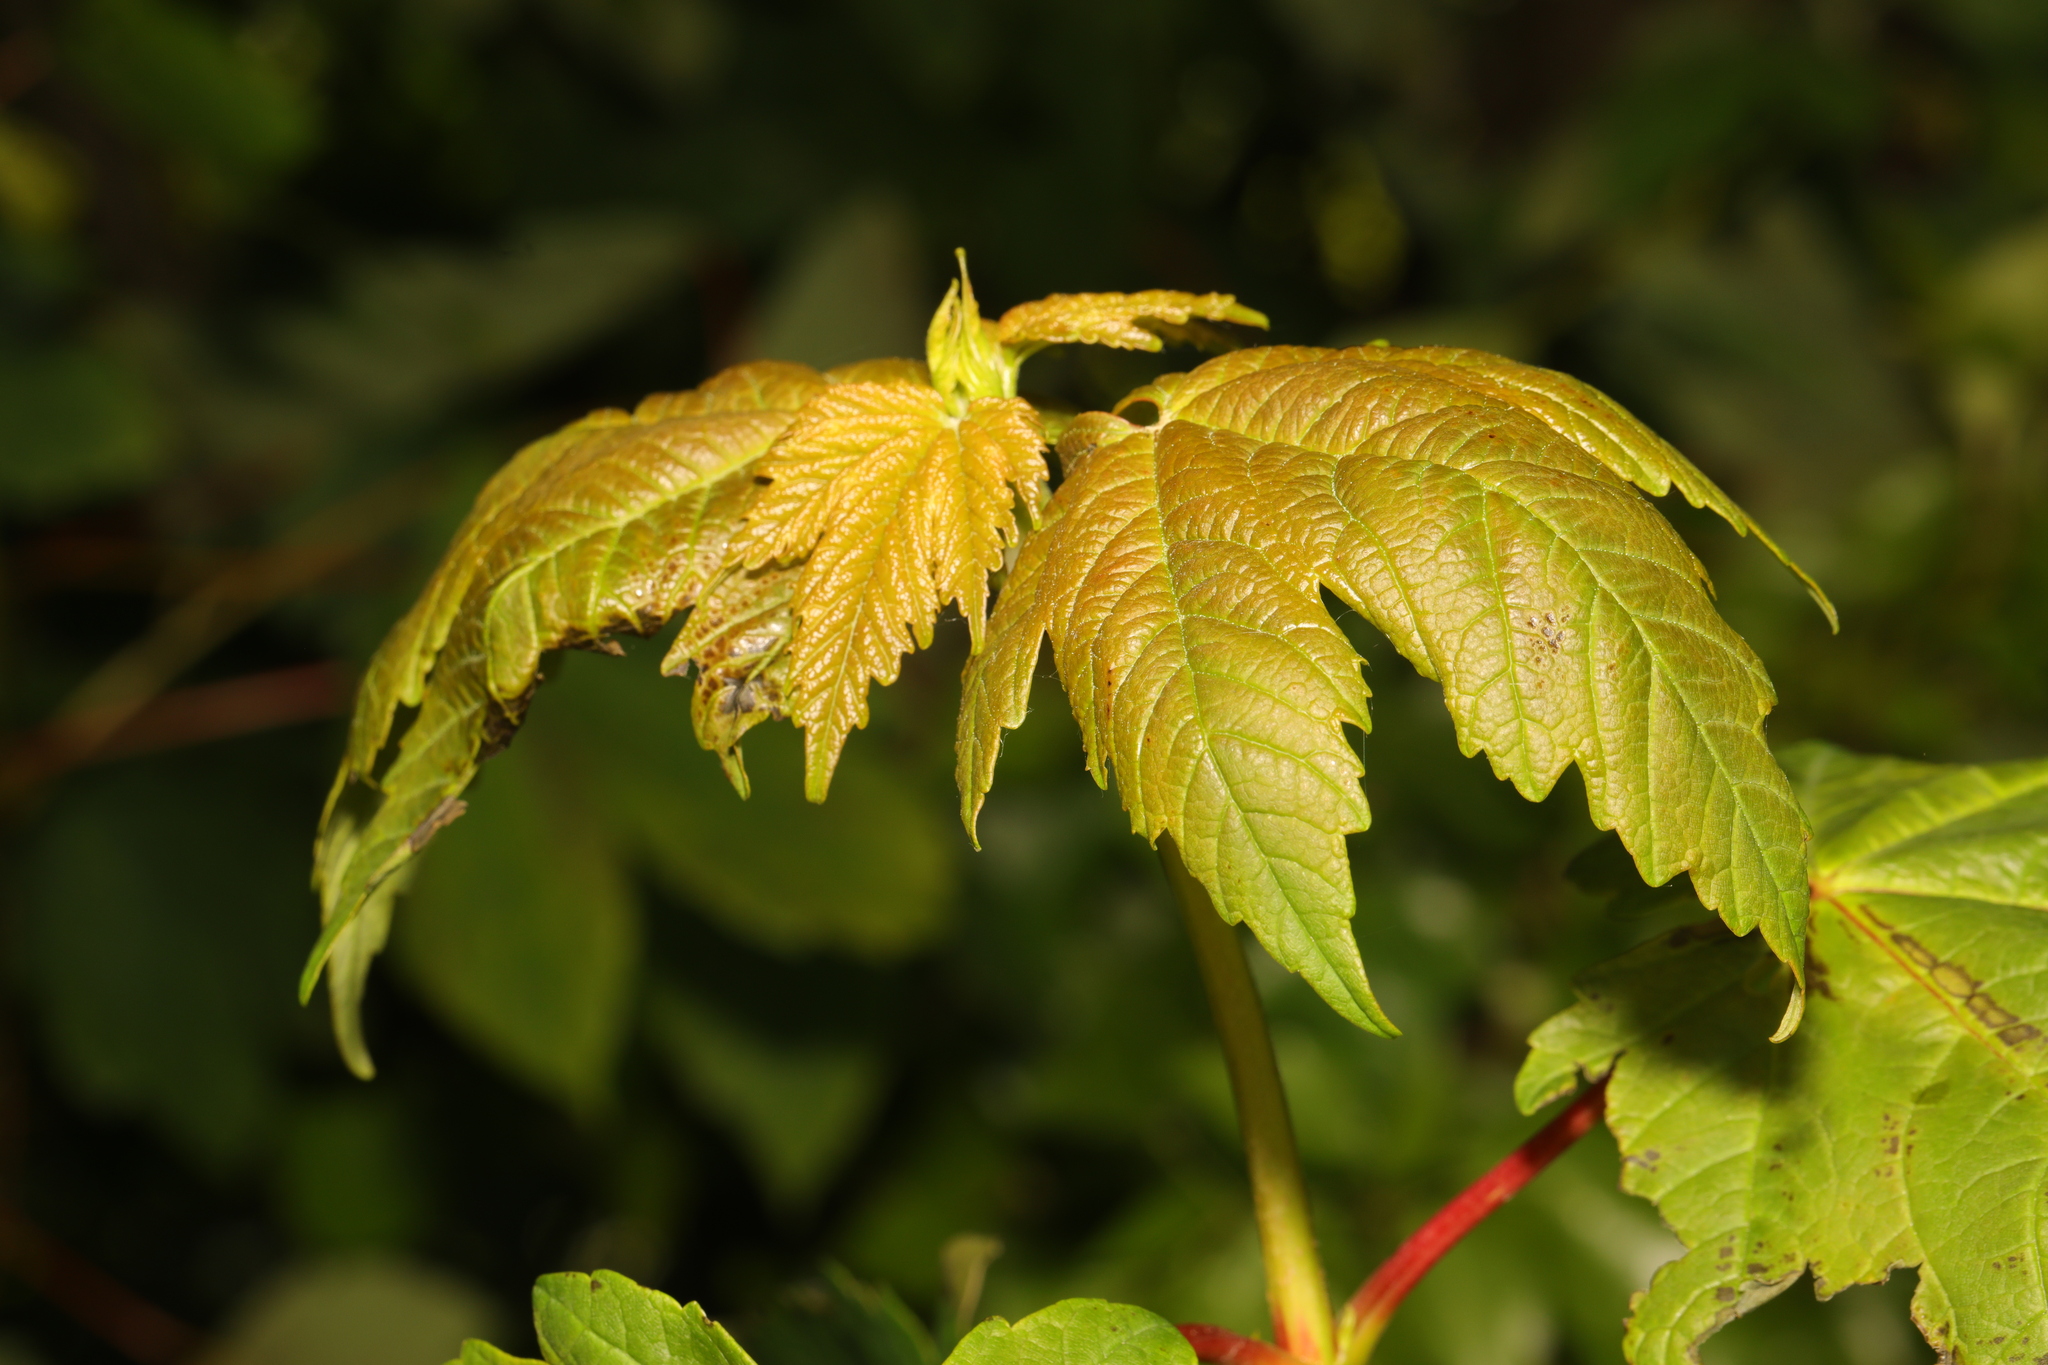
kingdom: Plantae
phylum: Tracheophyta
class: Magnoliopsida
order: Sapindales
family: Sapindaceae
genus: Acer
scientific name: Acer pseudoplatanus
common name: Sycamore
